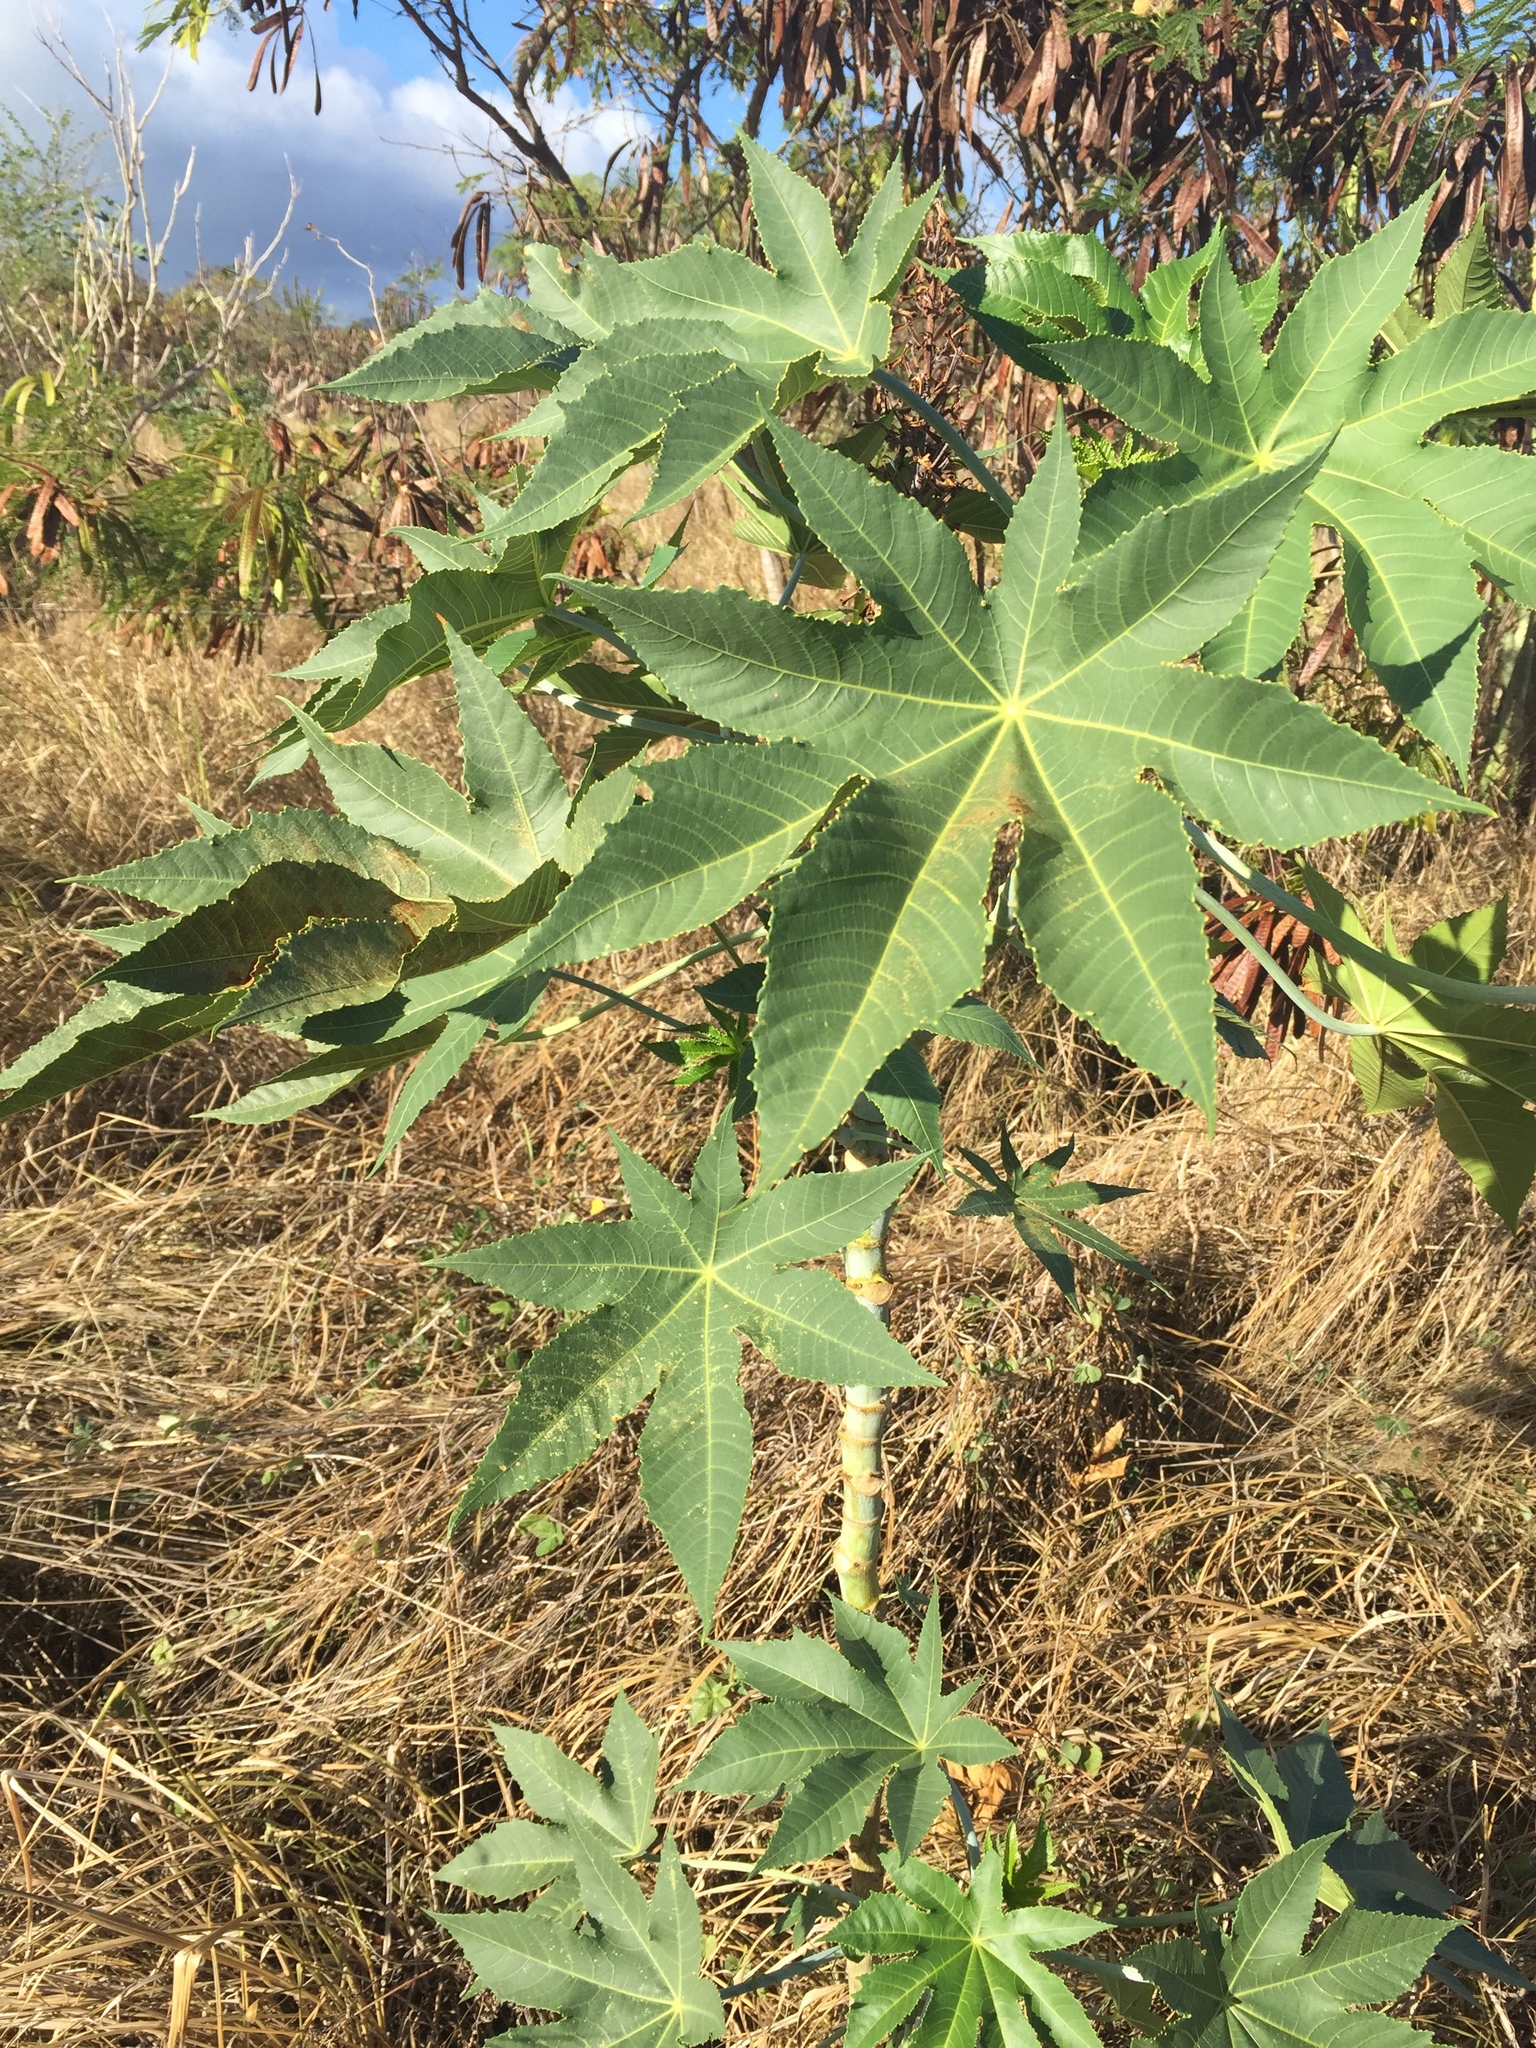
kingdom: Plantae
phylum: Tracheophyta
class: Magnoliopsida
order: Malpighiales
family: Euphorbiaceae
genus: Ricinus
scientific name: Ricinus communis
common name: Castor-oil-plant
